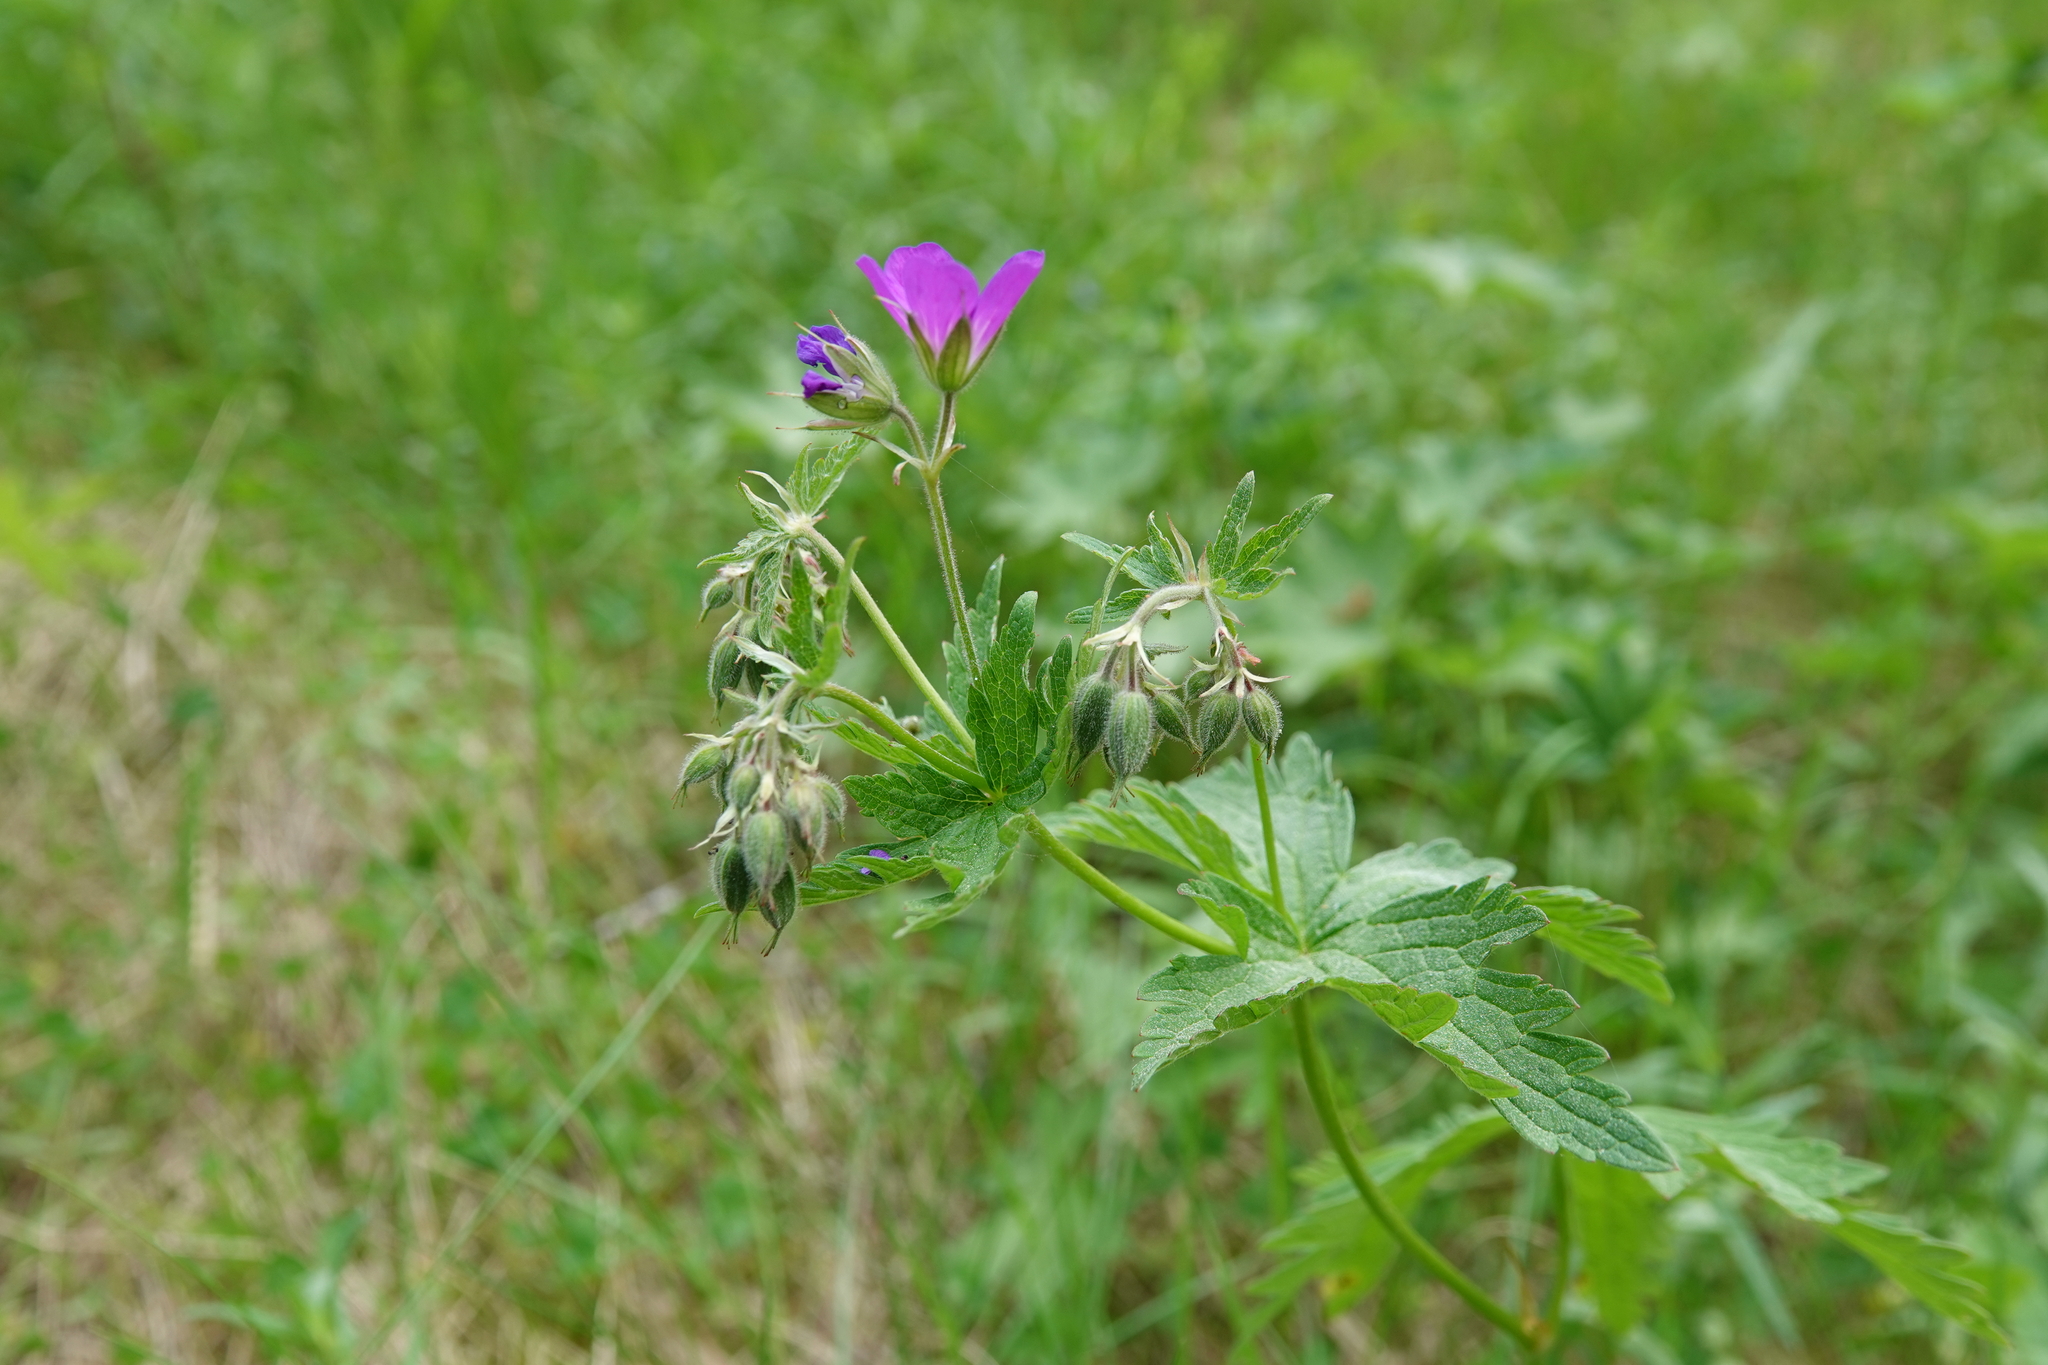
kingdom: Plantae
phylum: Tracheophyta
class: Magnoliopsida
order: Geraniales
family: Geraniaceae
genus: Geranium
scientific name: Geranium sylvaticum
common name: Wood crane's-bill
